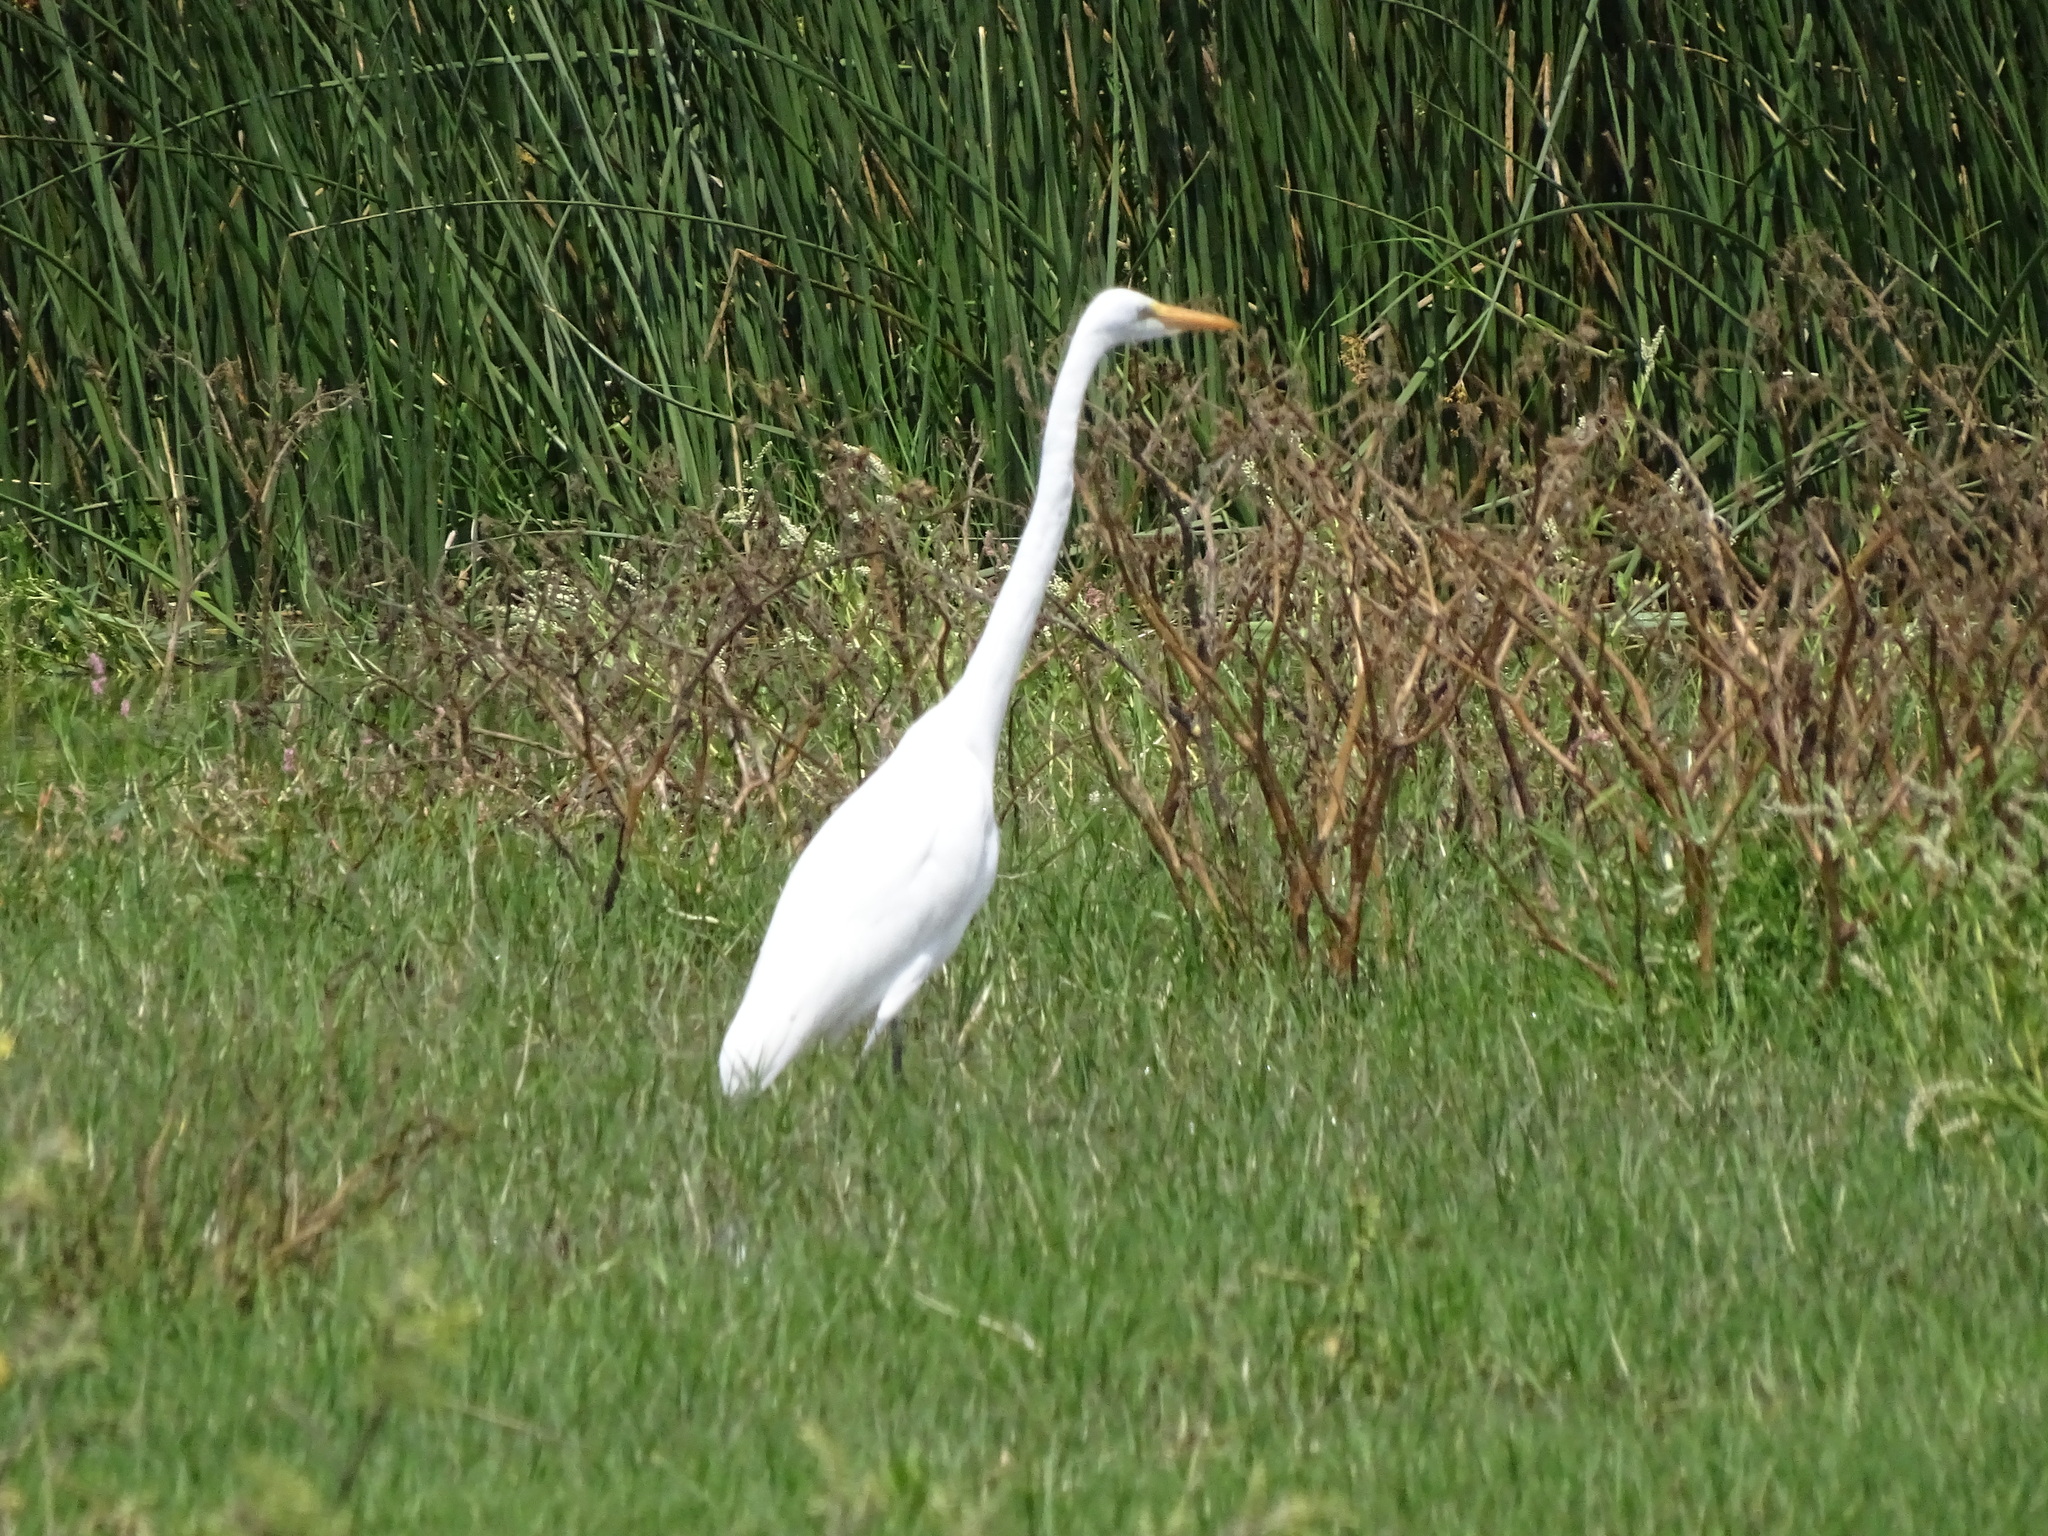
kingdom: Animalia
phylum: Chordata
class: Aves
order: Pelecaniformes
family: Ardeidae
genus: Ardea
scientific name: Ardea alba
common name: Great egret
